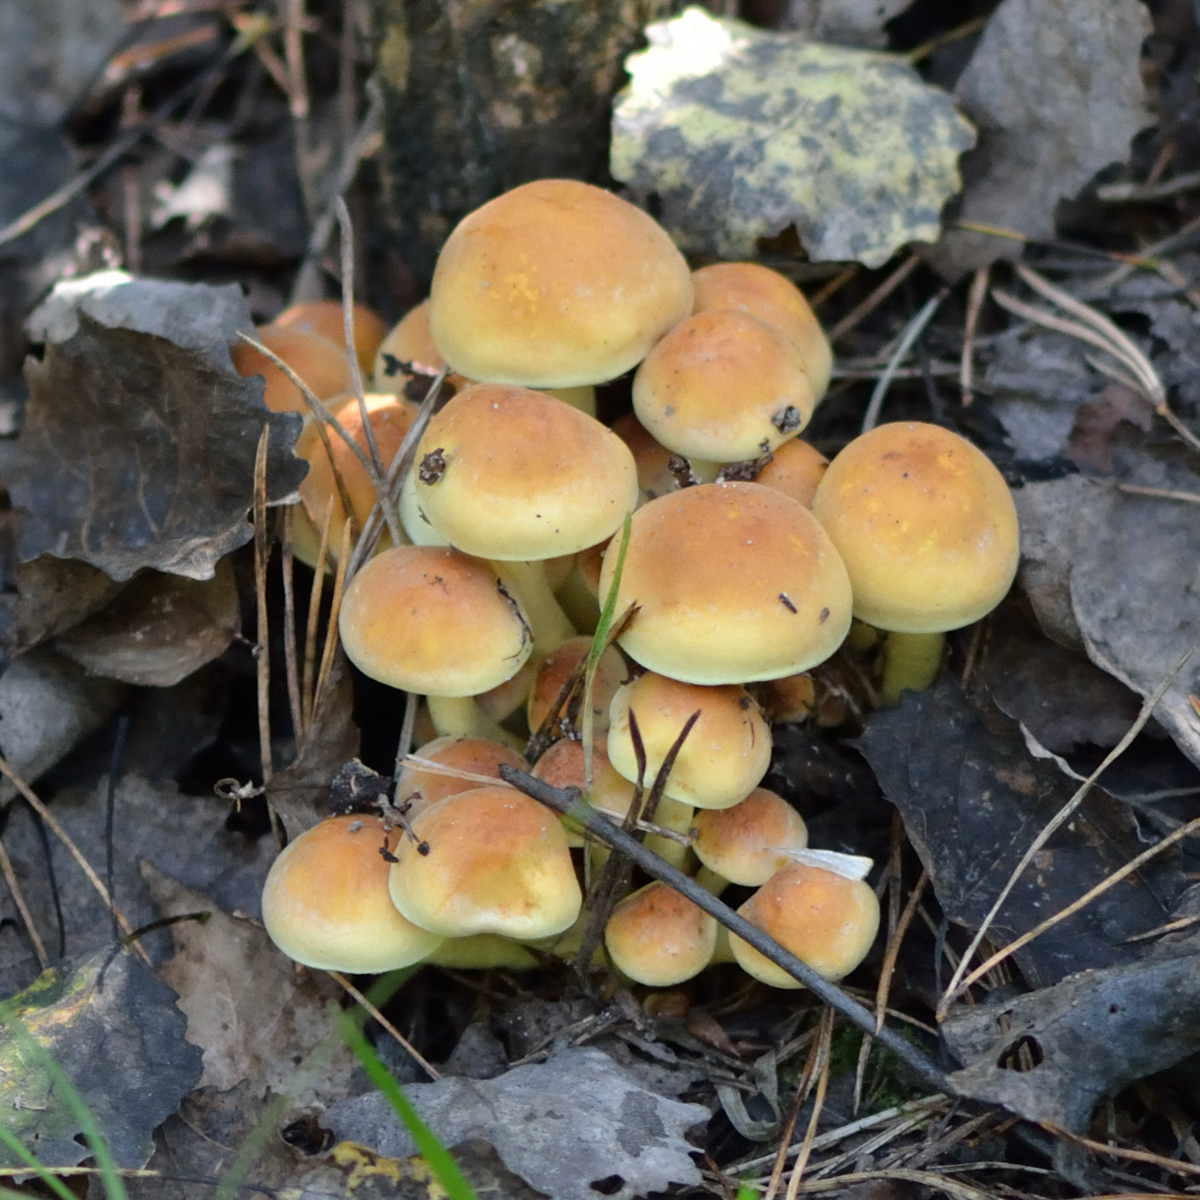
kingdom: Fungi
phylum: Basidiomycota
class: Agaricomycetes
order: Agaricales
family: Strophariaceae
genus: Hypholoma
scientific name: Hypholoma fasciculare
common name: Sulphur tuft
